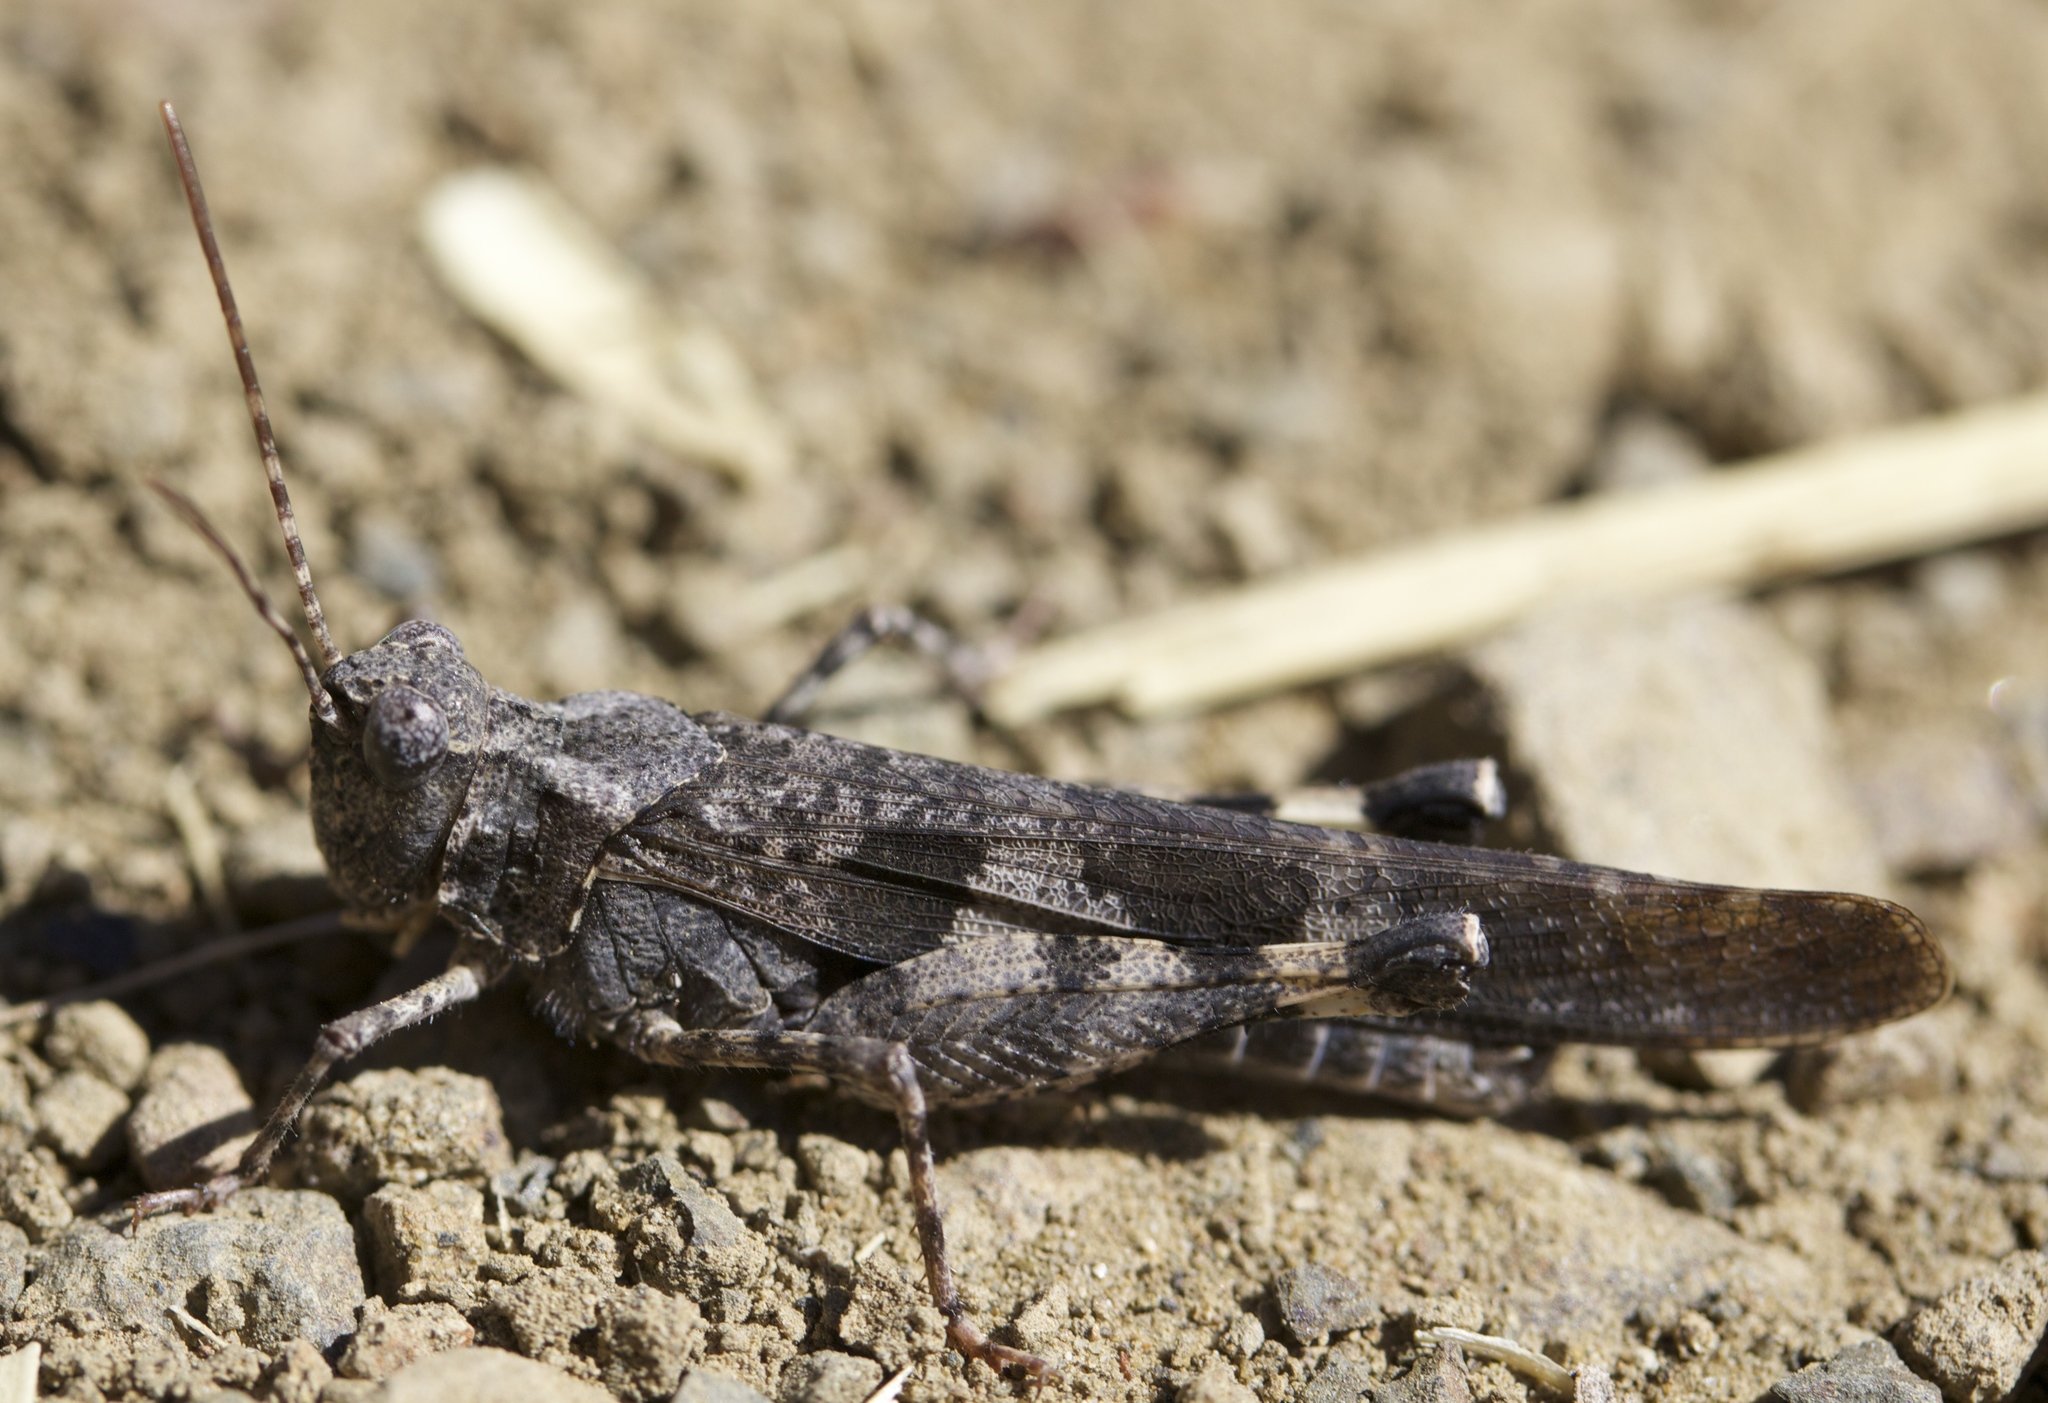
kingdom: Animalia
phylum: Arthropoda
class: Insecta
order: Orthoptera
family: Acrididae
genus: Trimerotropis
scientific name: Trimerotropis fontana
